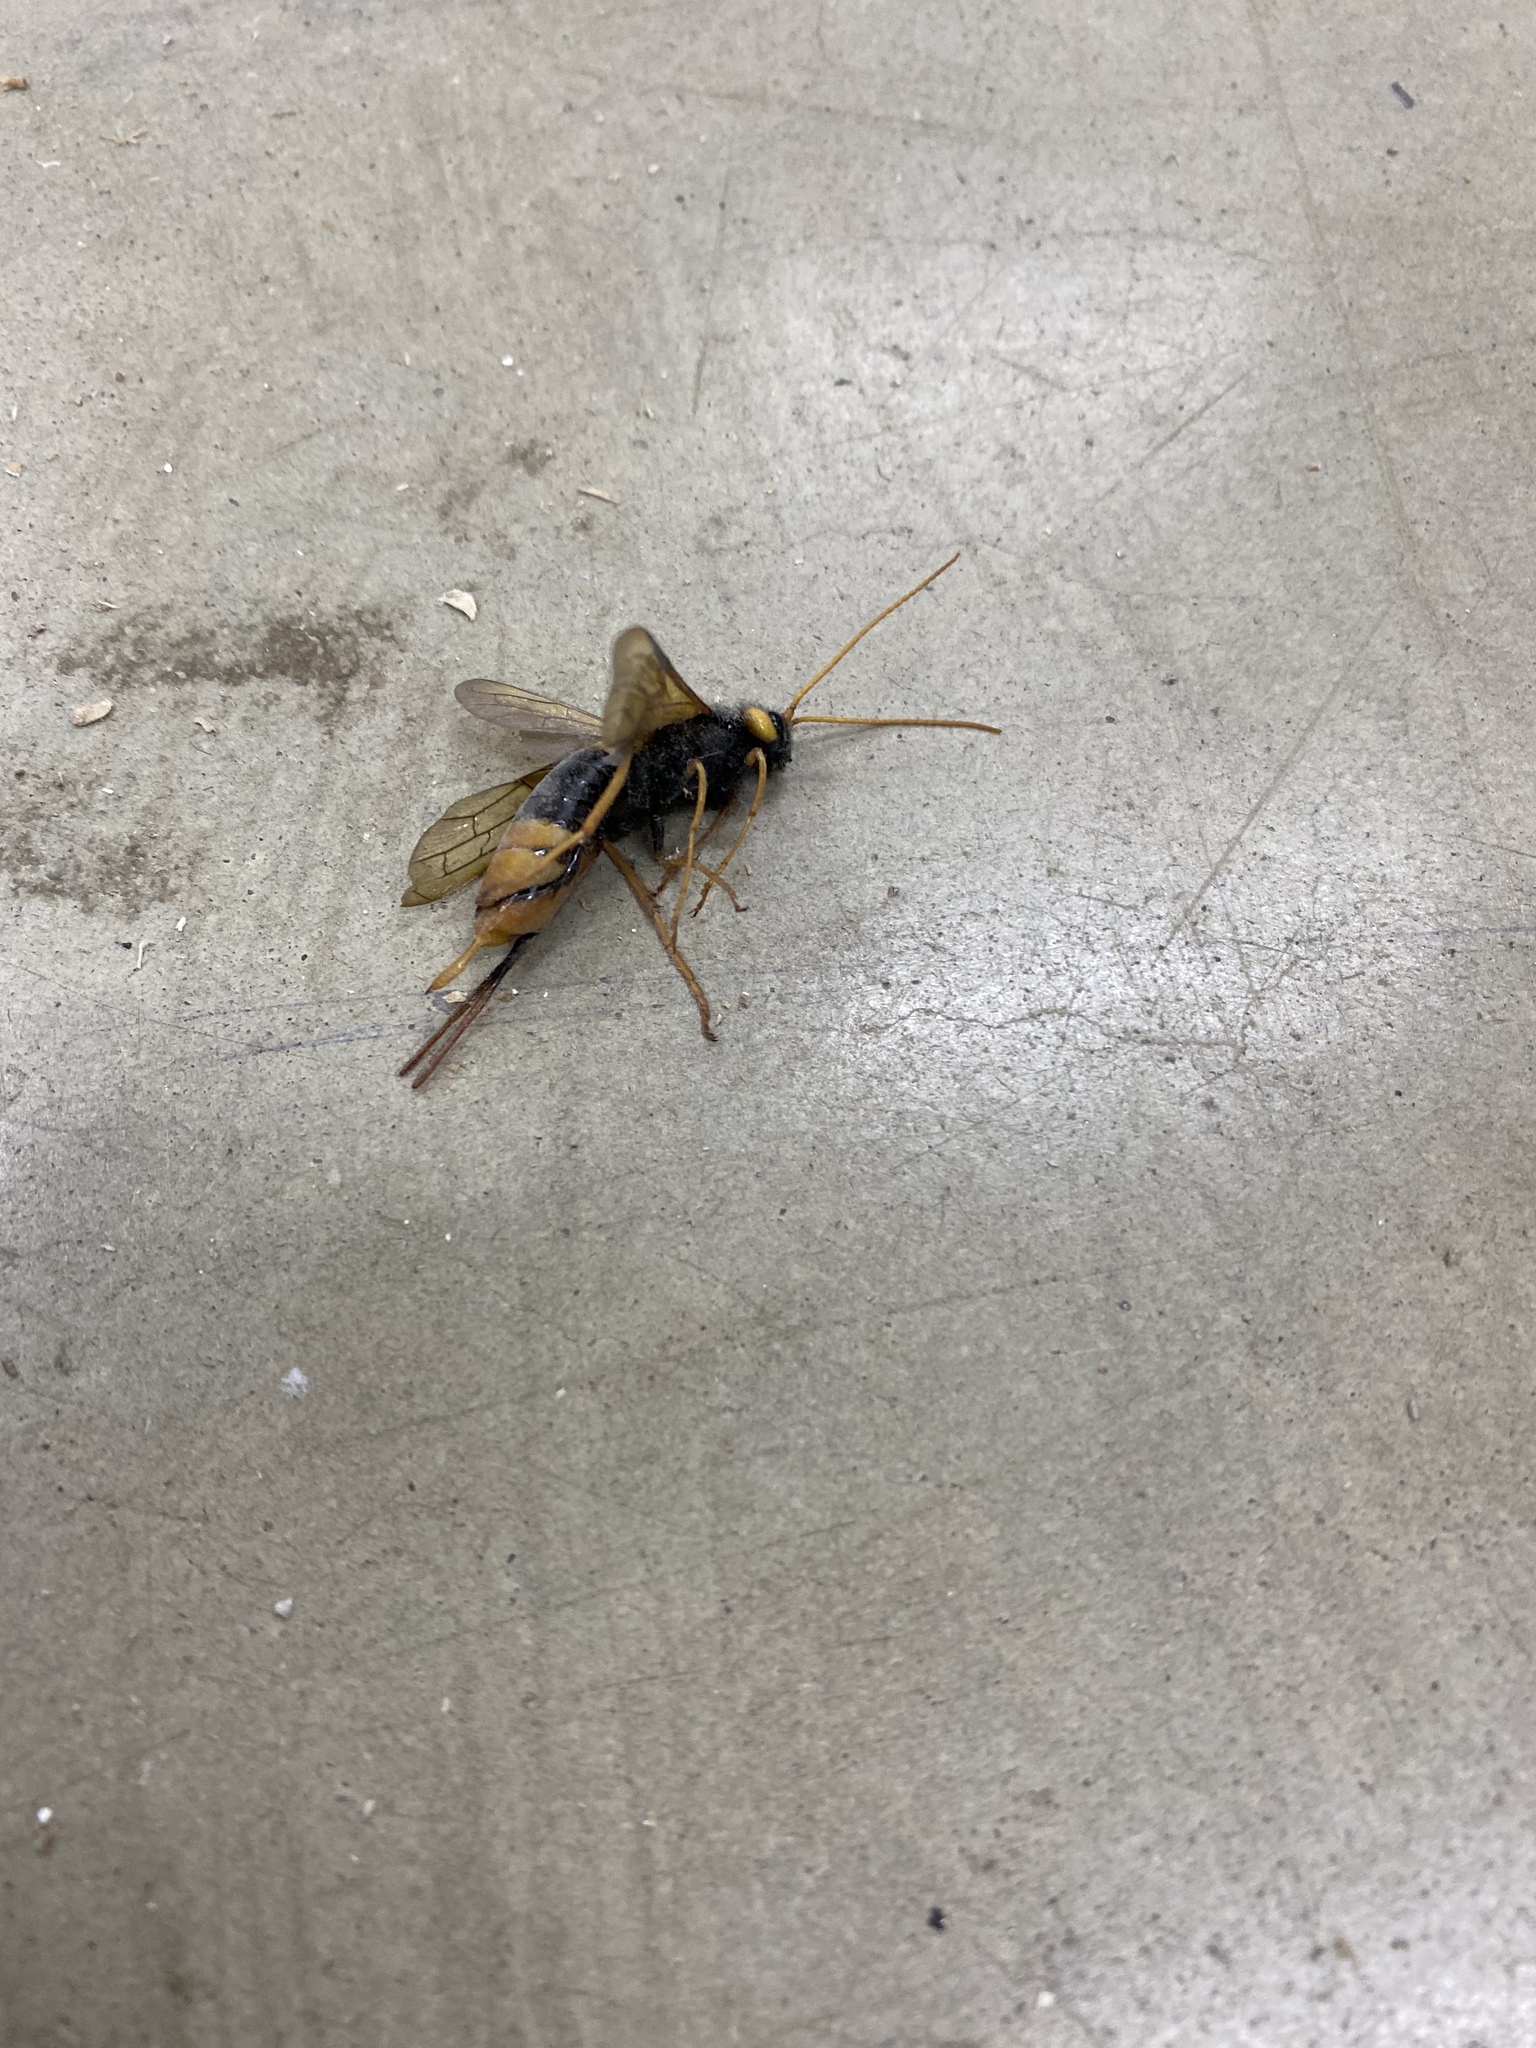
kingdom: Animalia
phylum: Arthropoda
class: Insecta
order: Hymenoptera
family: Siricidae
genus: Urocerus
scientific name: Urocerus gigas
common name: Giant woodwasp
